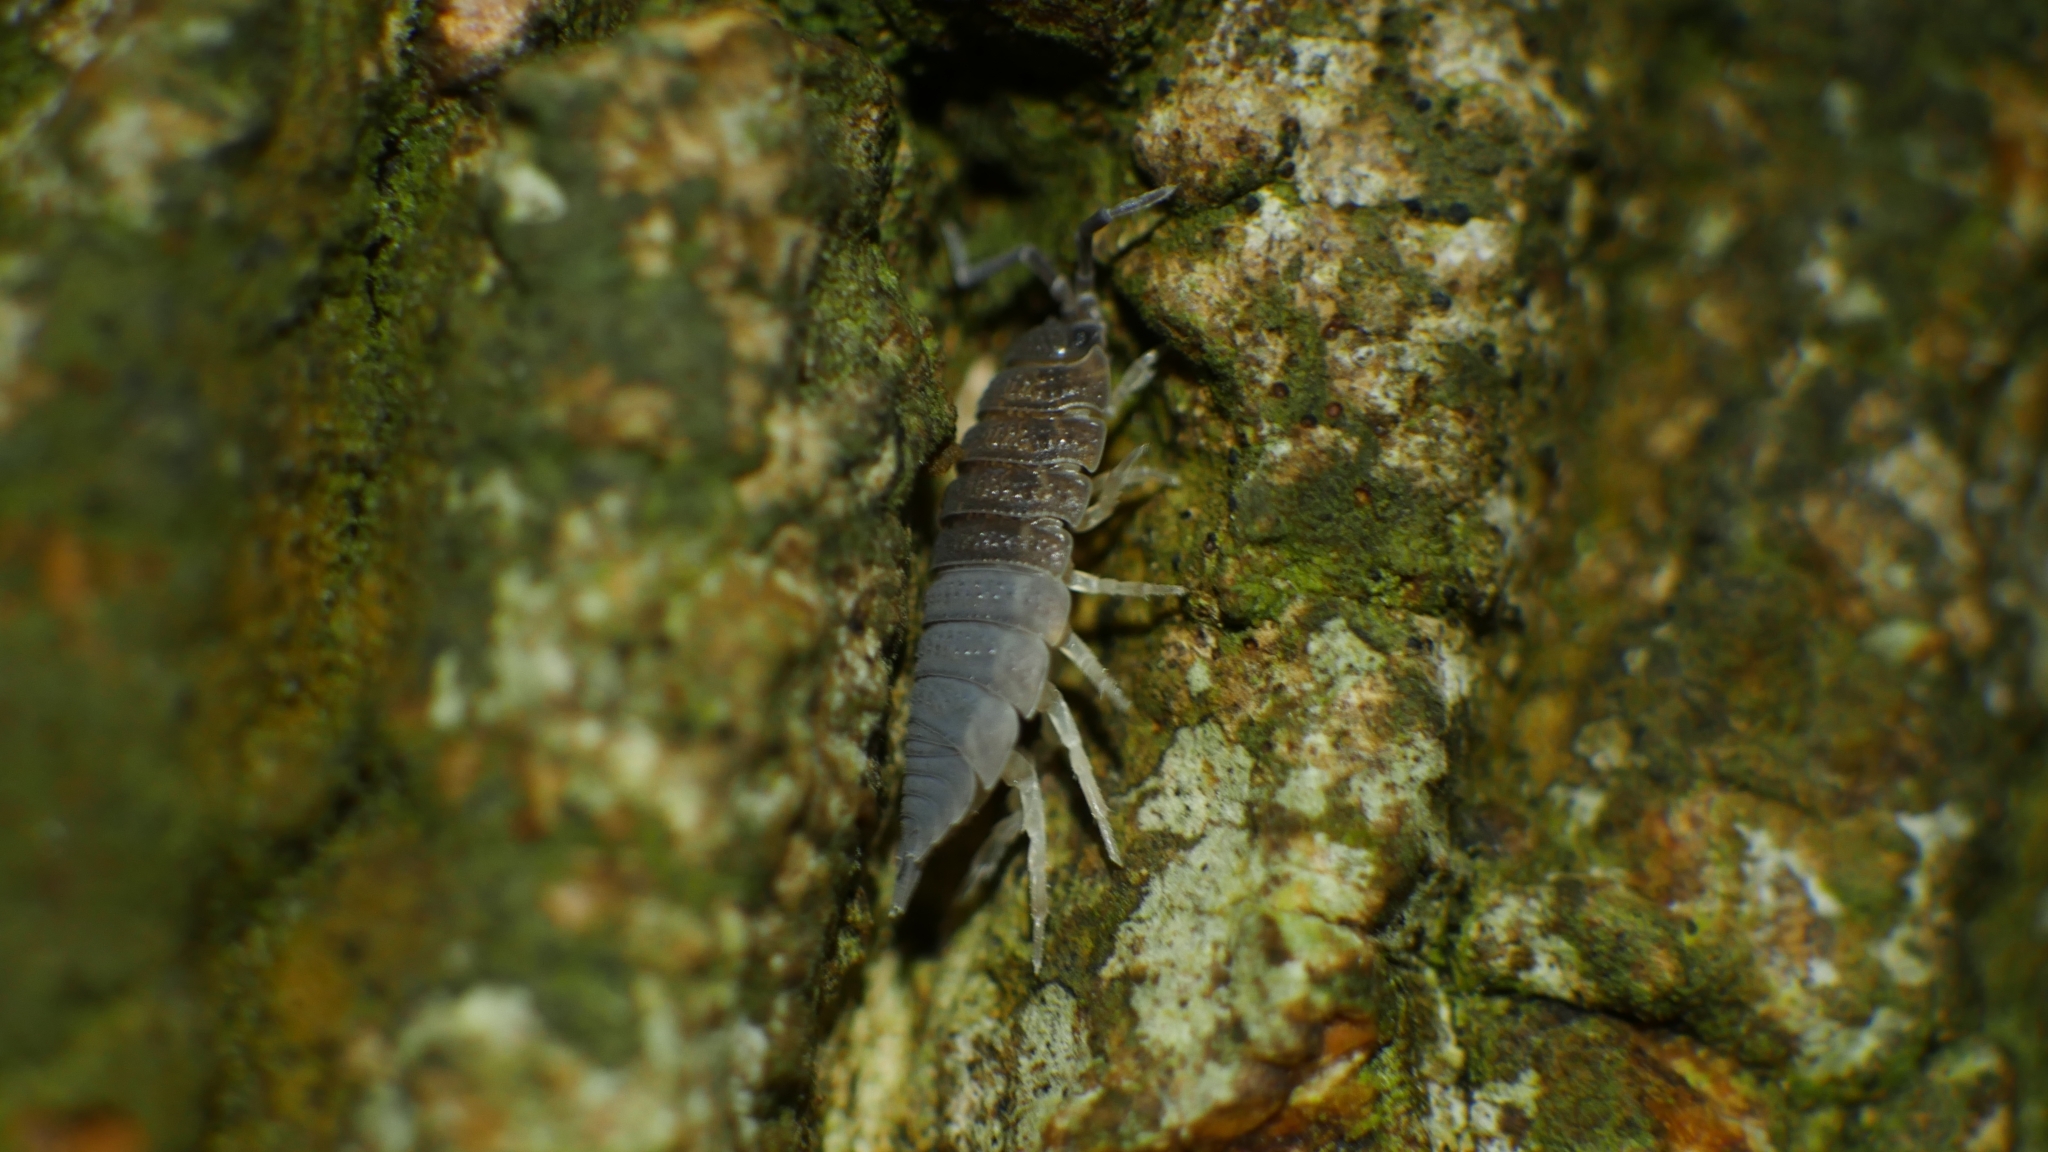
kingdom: Animalia
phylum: Arthropoda
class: Malacostraca
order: Isopoda
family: Porcellionidae
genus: Porcellio
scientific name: Porcellio scaber
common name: Common rough woodlouse
